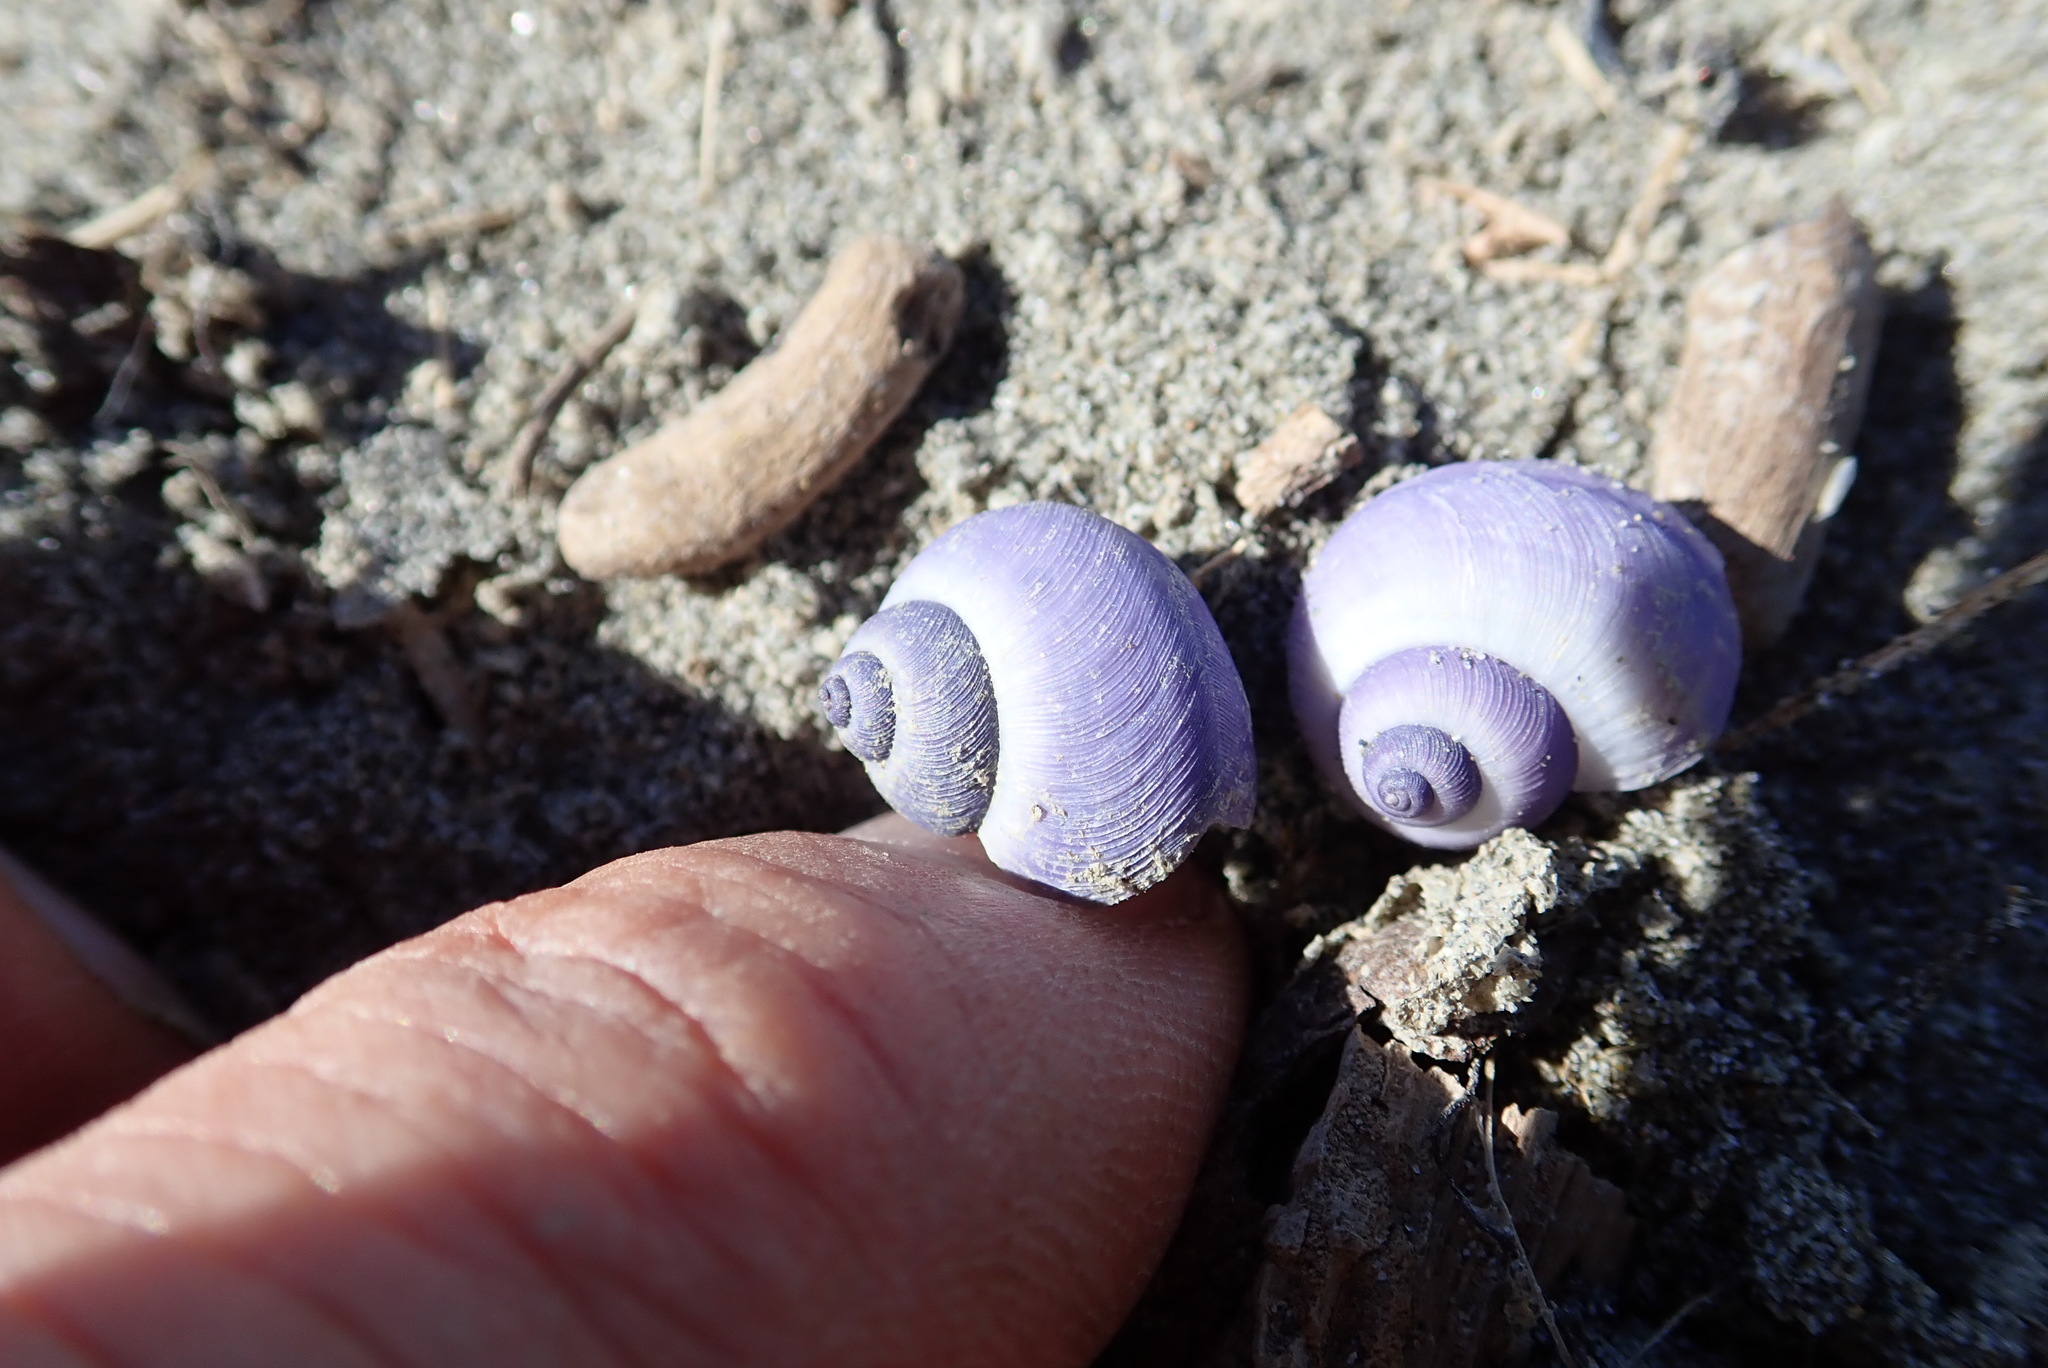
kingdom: Animalia
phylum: Mollusca
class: Gastropoda
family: Epitoniidae
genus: Janthina
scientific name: Janthina exigua
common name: Dwarf janthina
